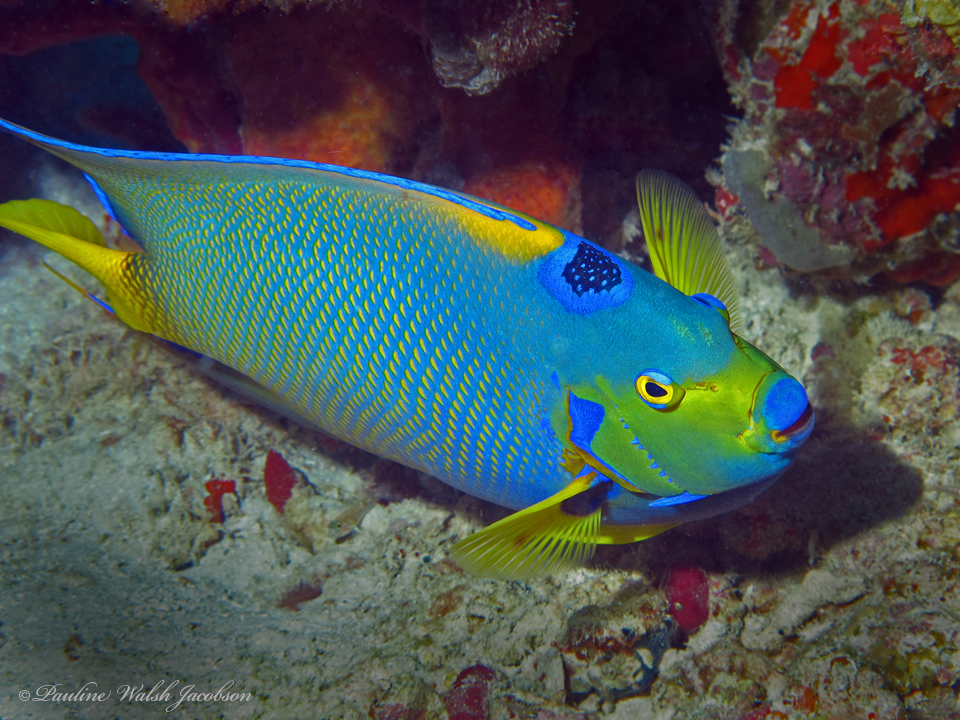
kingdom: Animalia
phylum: Chordata
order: Perciformes
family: Pomacanthidae
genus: Holacanthus
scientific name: Holacanthus ciliaris
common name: Queen angelfish
